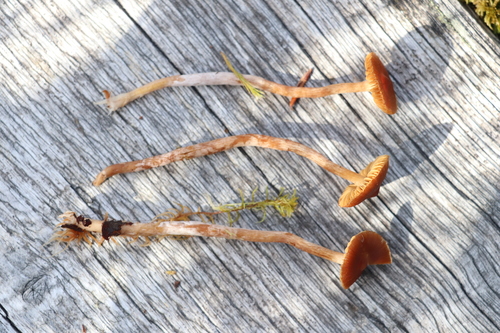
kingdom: Fungi
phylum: Basidiomycota
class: Agaricomycetes
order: Agaricales
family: Cortinariaceae
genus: Cortinarius
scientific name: Cortinarius flos-paludis
